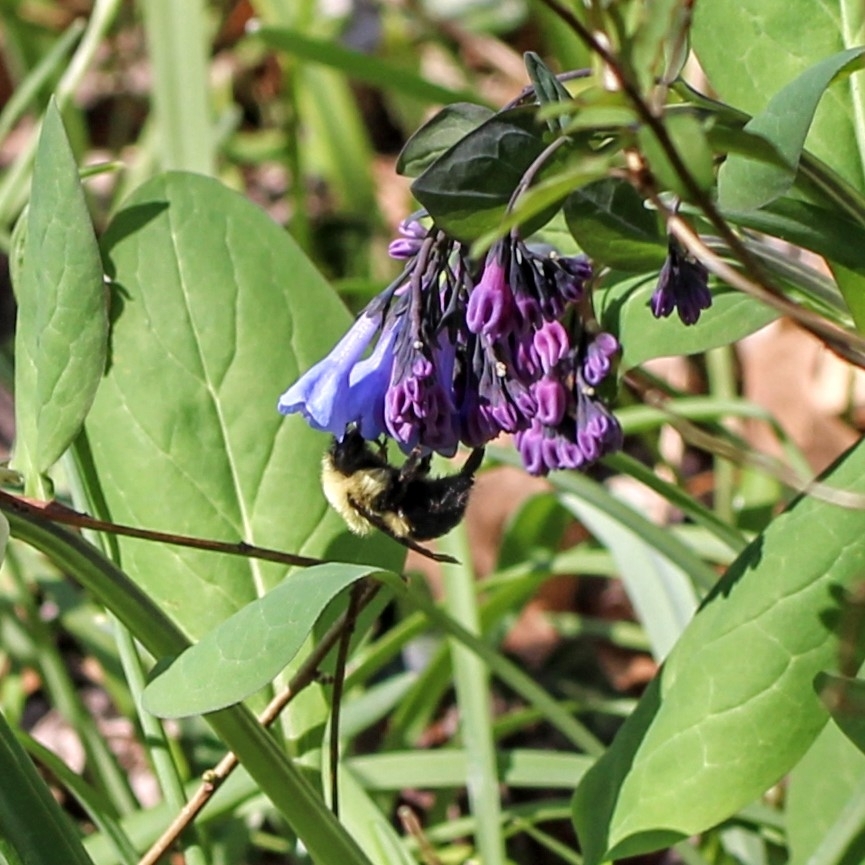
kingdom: Animalia
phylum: Arthropoda
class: Insecta
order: Hymenoptera
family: Apidae
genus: Bombus
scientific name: Bombus bimaculatus
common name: Two-spotted bumble bee
